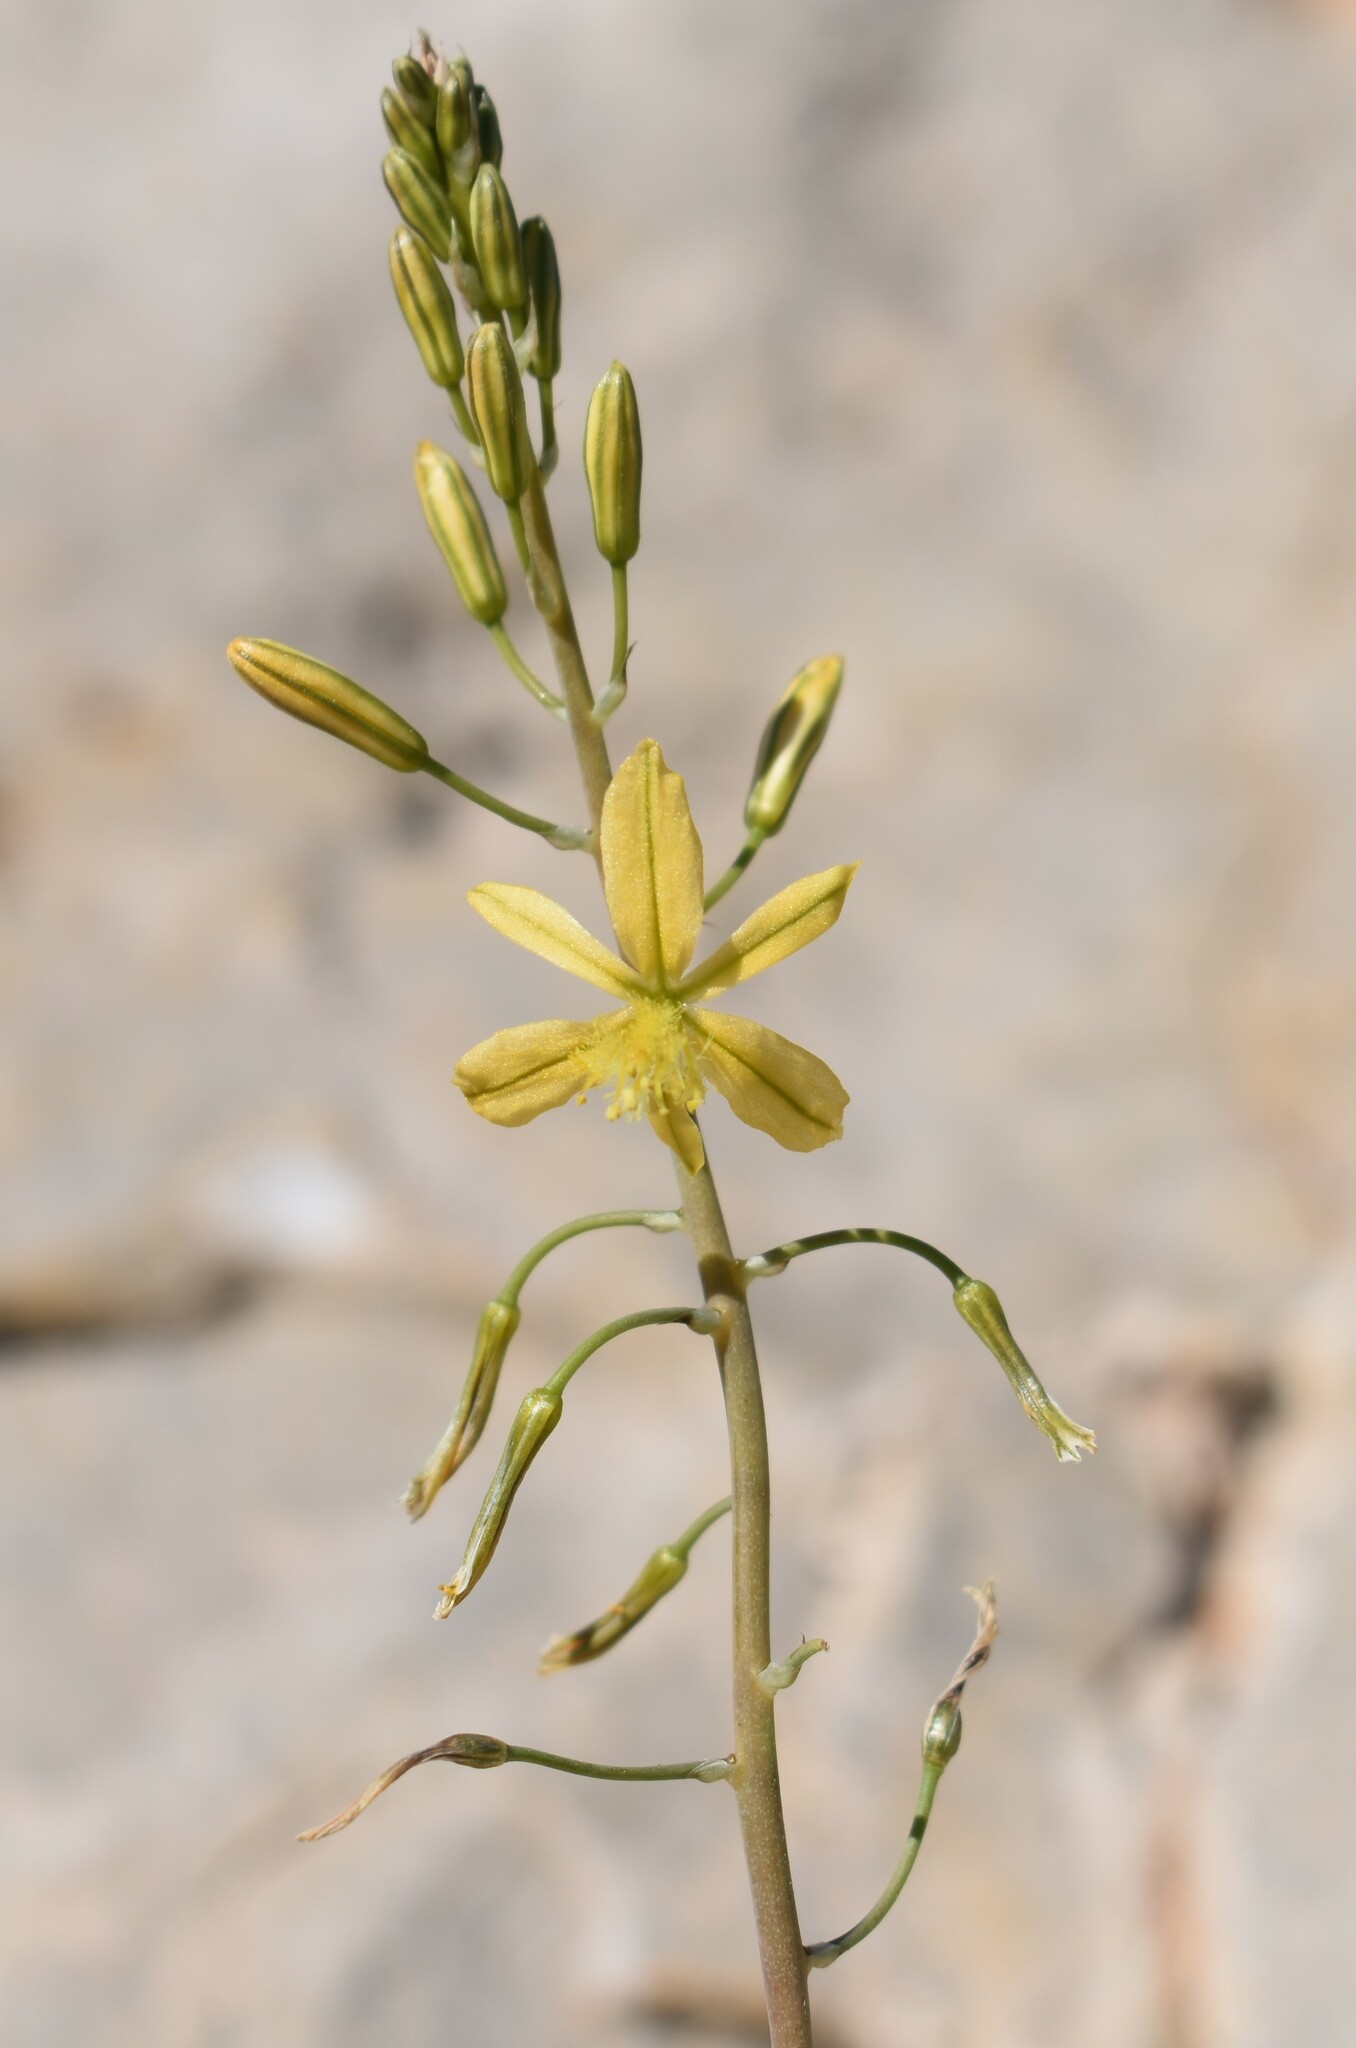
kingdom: Plantae
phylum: Tracheophyta
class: Liliopsida
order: Asparagales
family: Asphodelaceae
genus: Bulbine
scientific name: Bulbine foleyi
